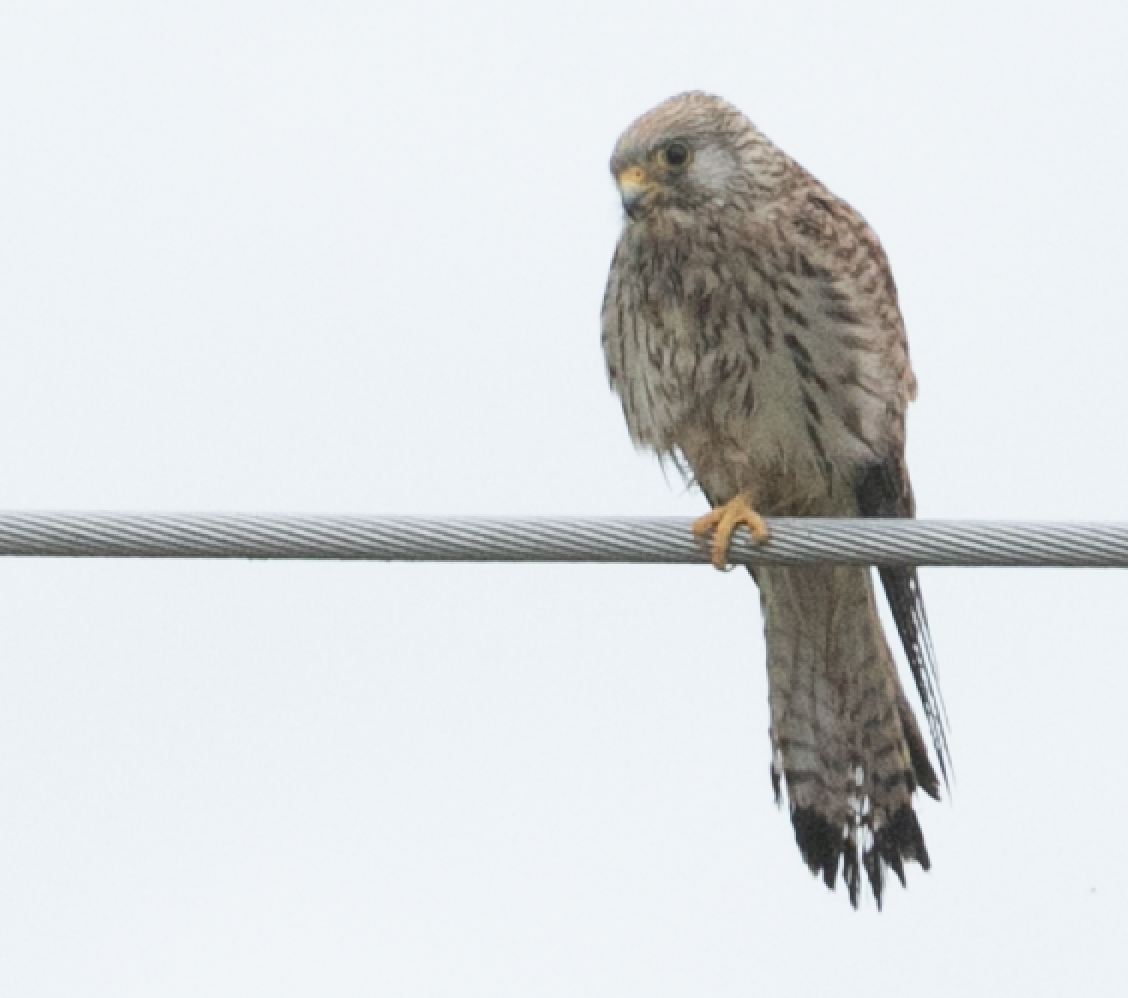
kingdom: Animalia
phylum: Chordata
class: Aves
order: Falconiformes
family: Falconidae
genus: Falco
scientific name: Falco tinnunculus
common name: Common kestrel
